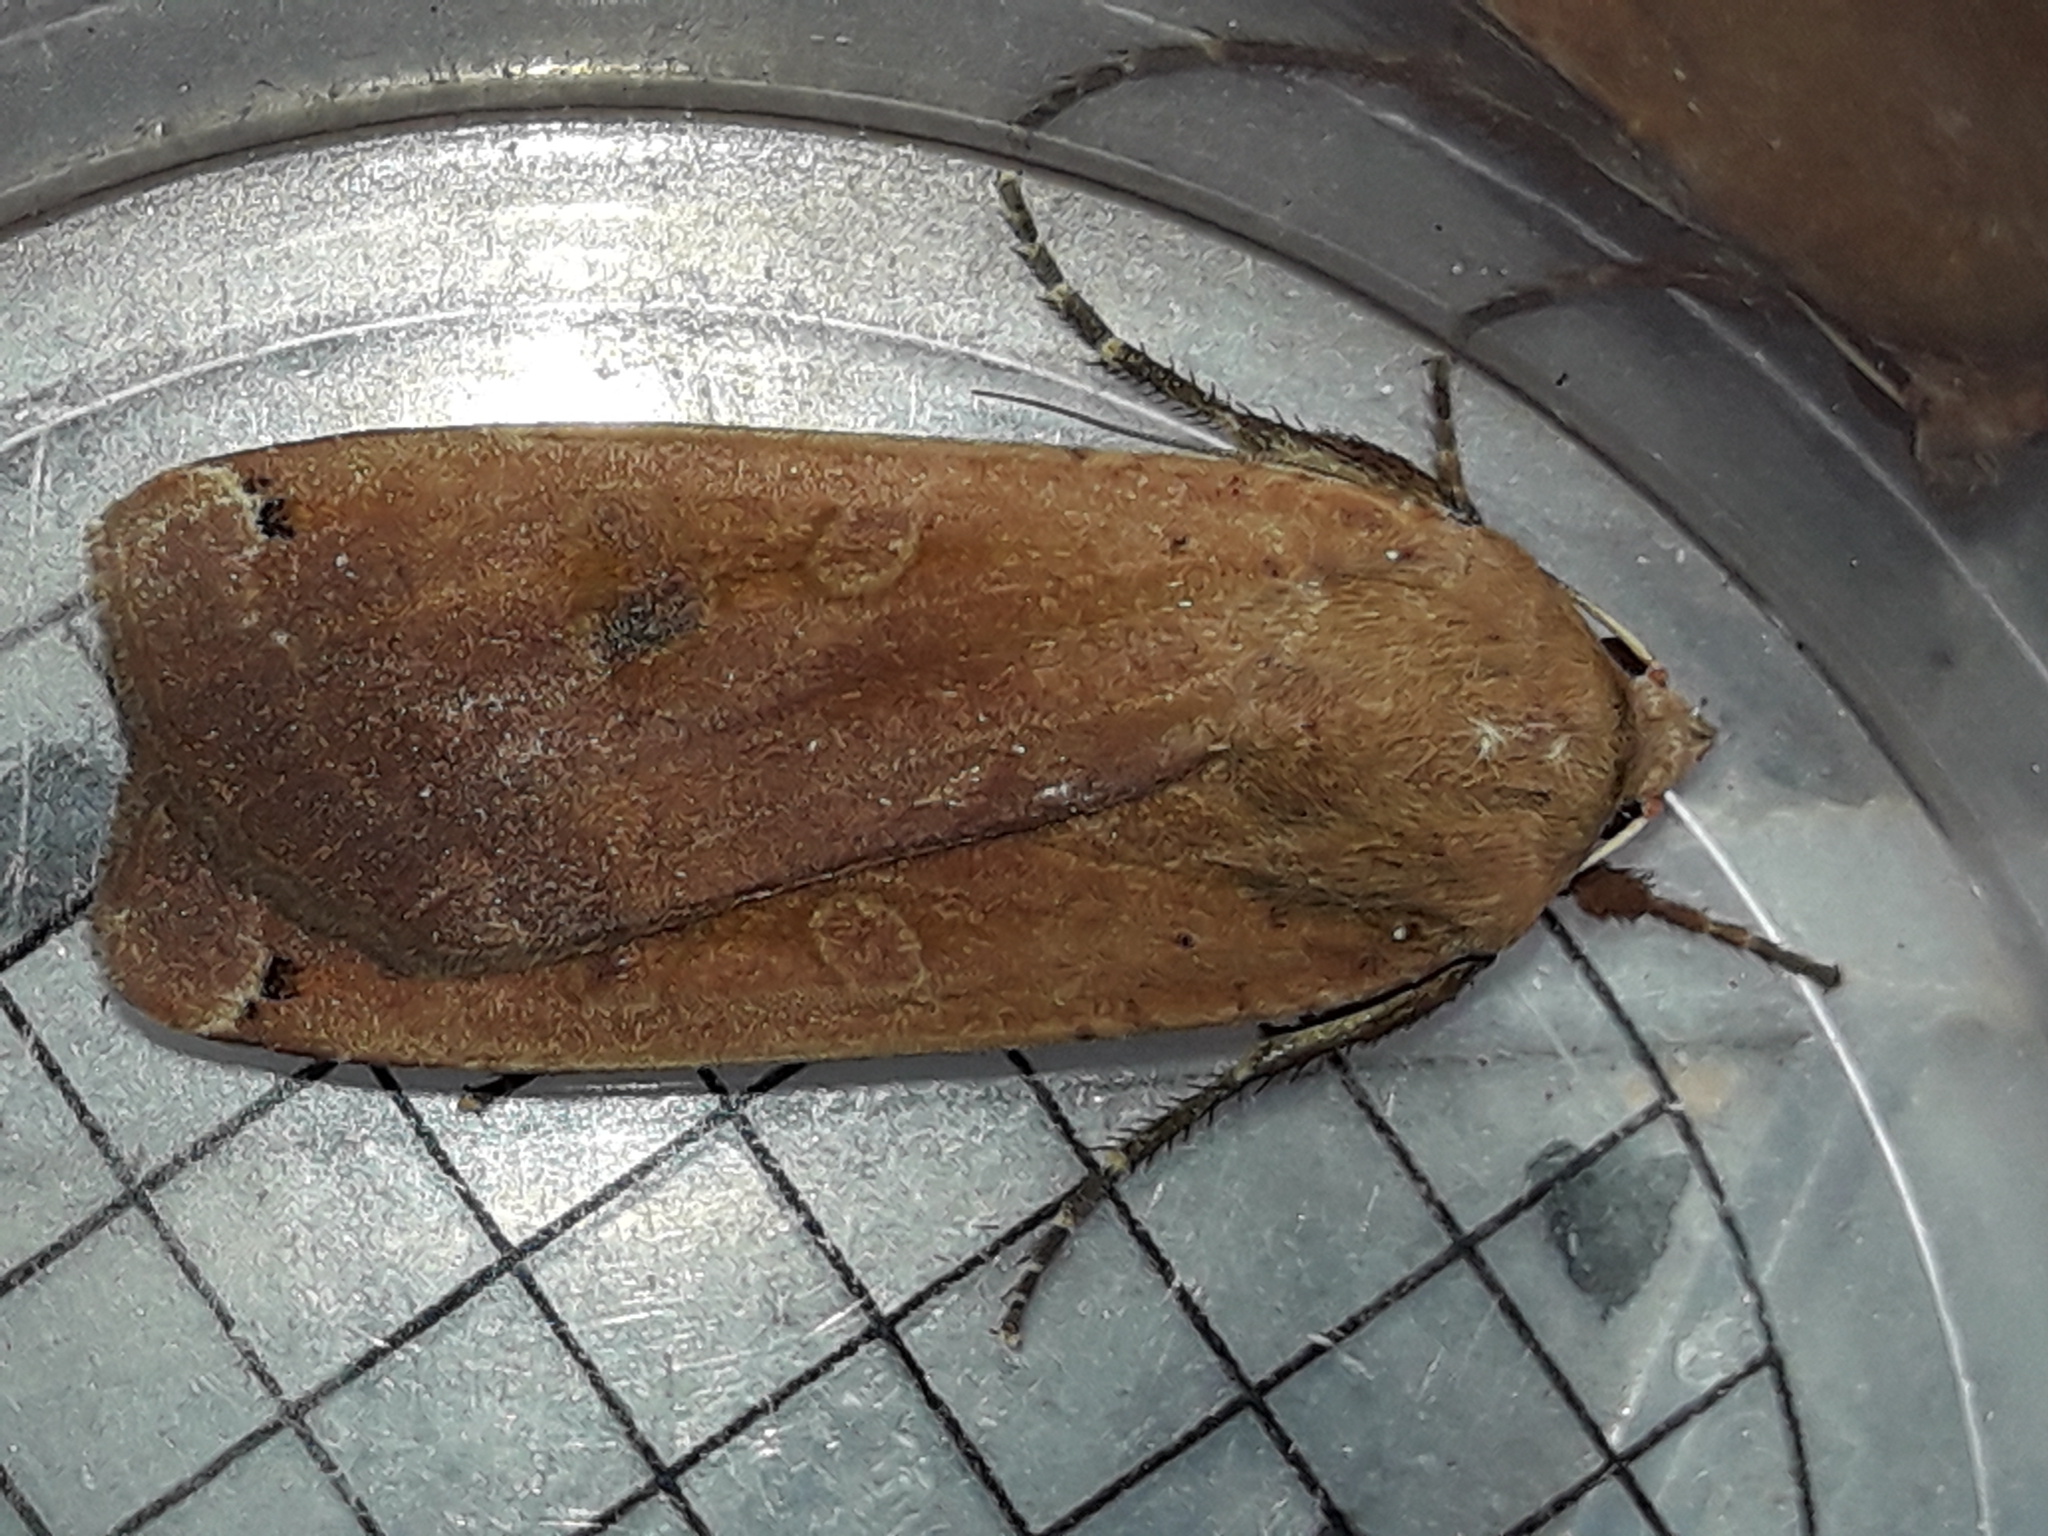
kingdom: Animalia
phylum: Arthropoda
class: Insecta
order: Lepidoptera
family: Noctuidae
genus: Noctua
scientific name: Noctua pronuba
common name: Large yellow underwing
